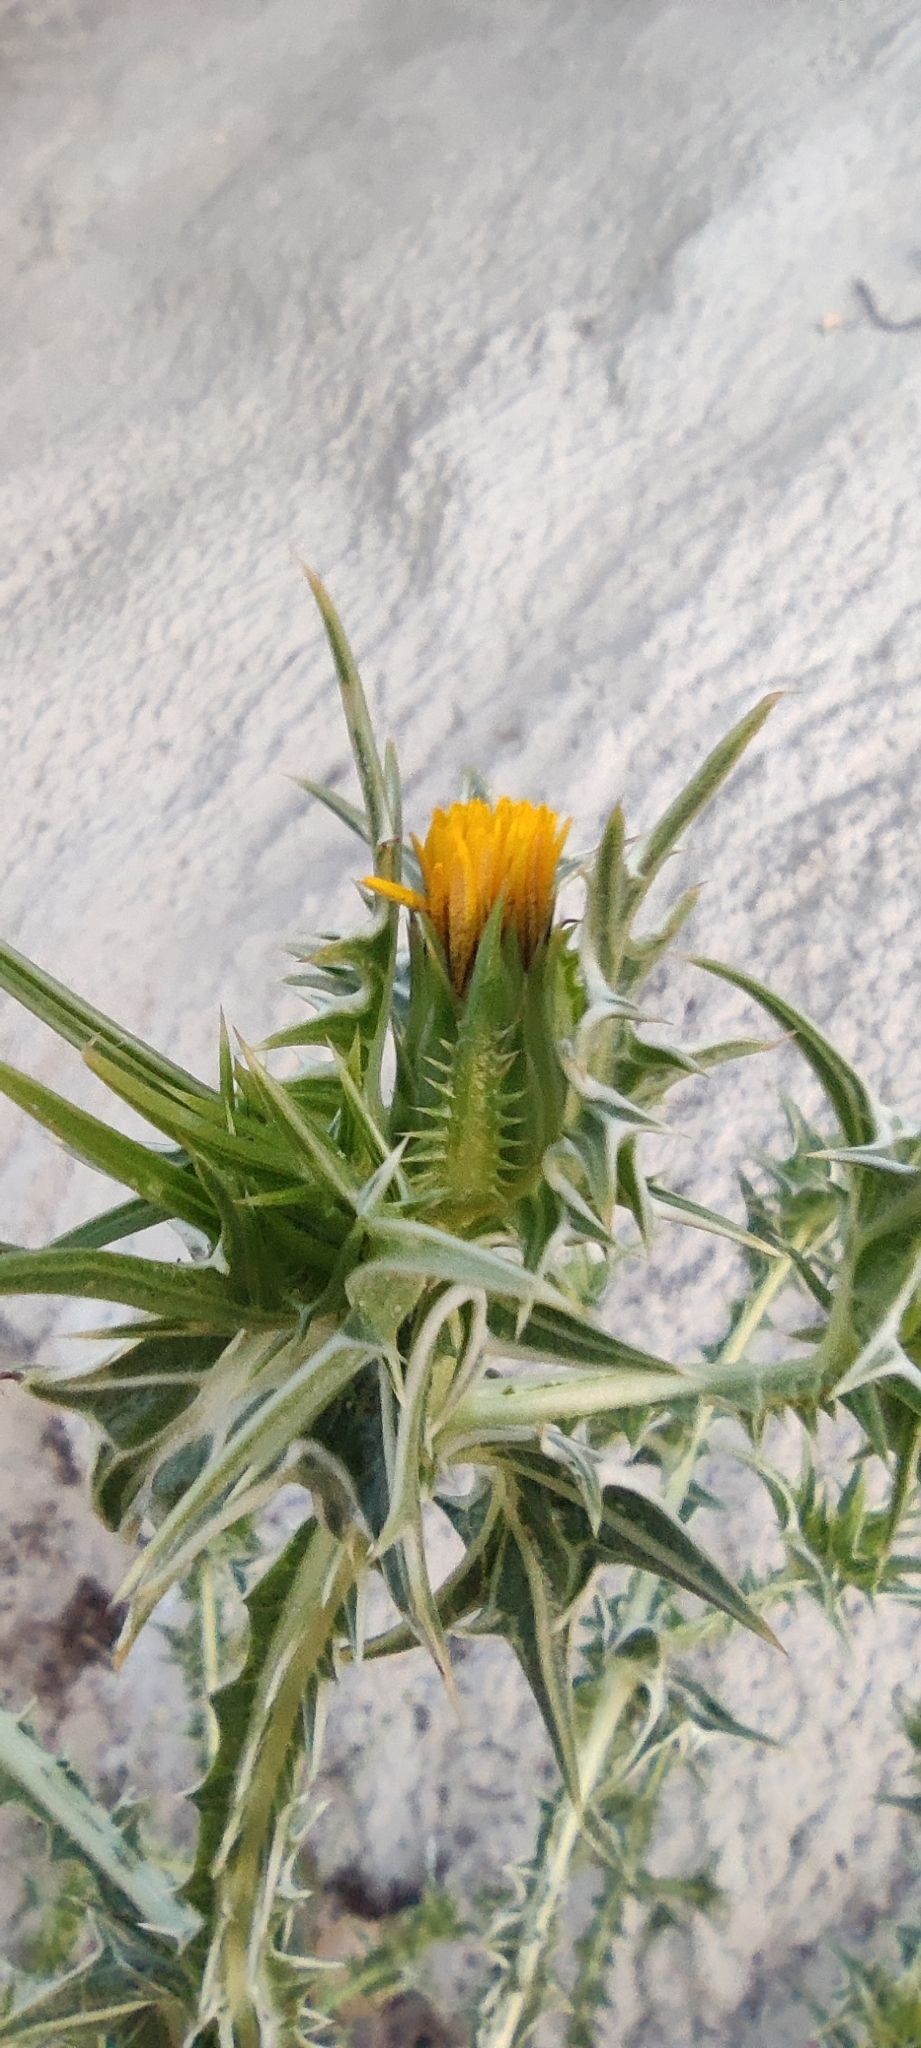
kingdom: Plantae
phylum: Tracheophyta
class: Magnoliopsida
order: Asterales
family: Asteraceae
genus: Scolymus
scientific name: Scolymus maculatus
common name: Spotted thistle
